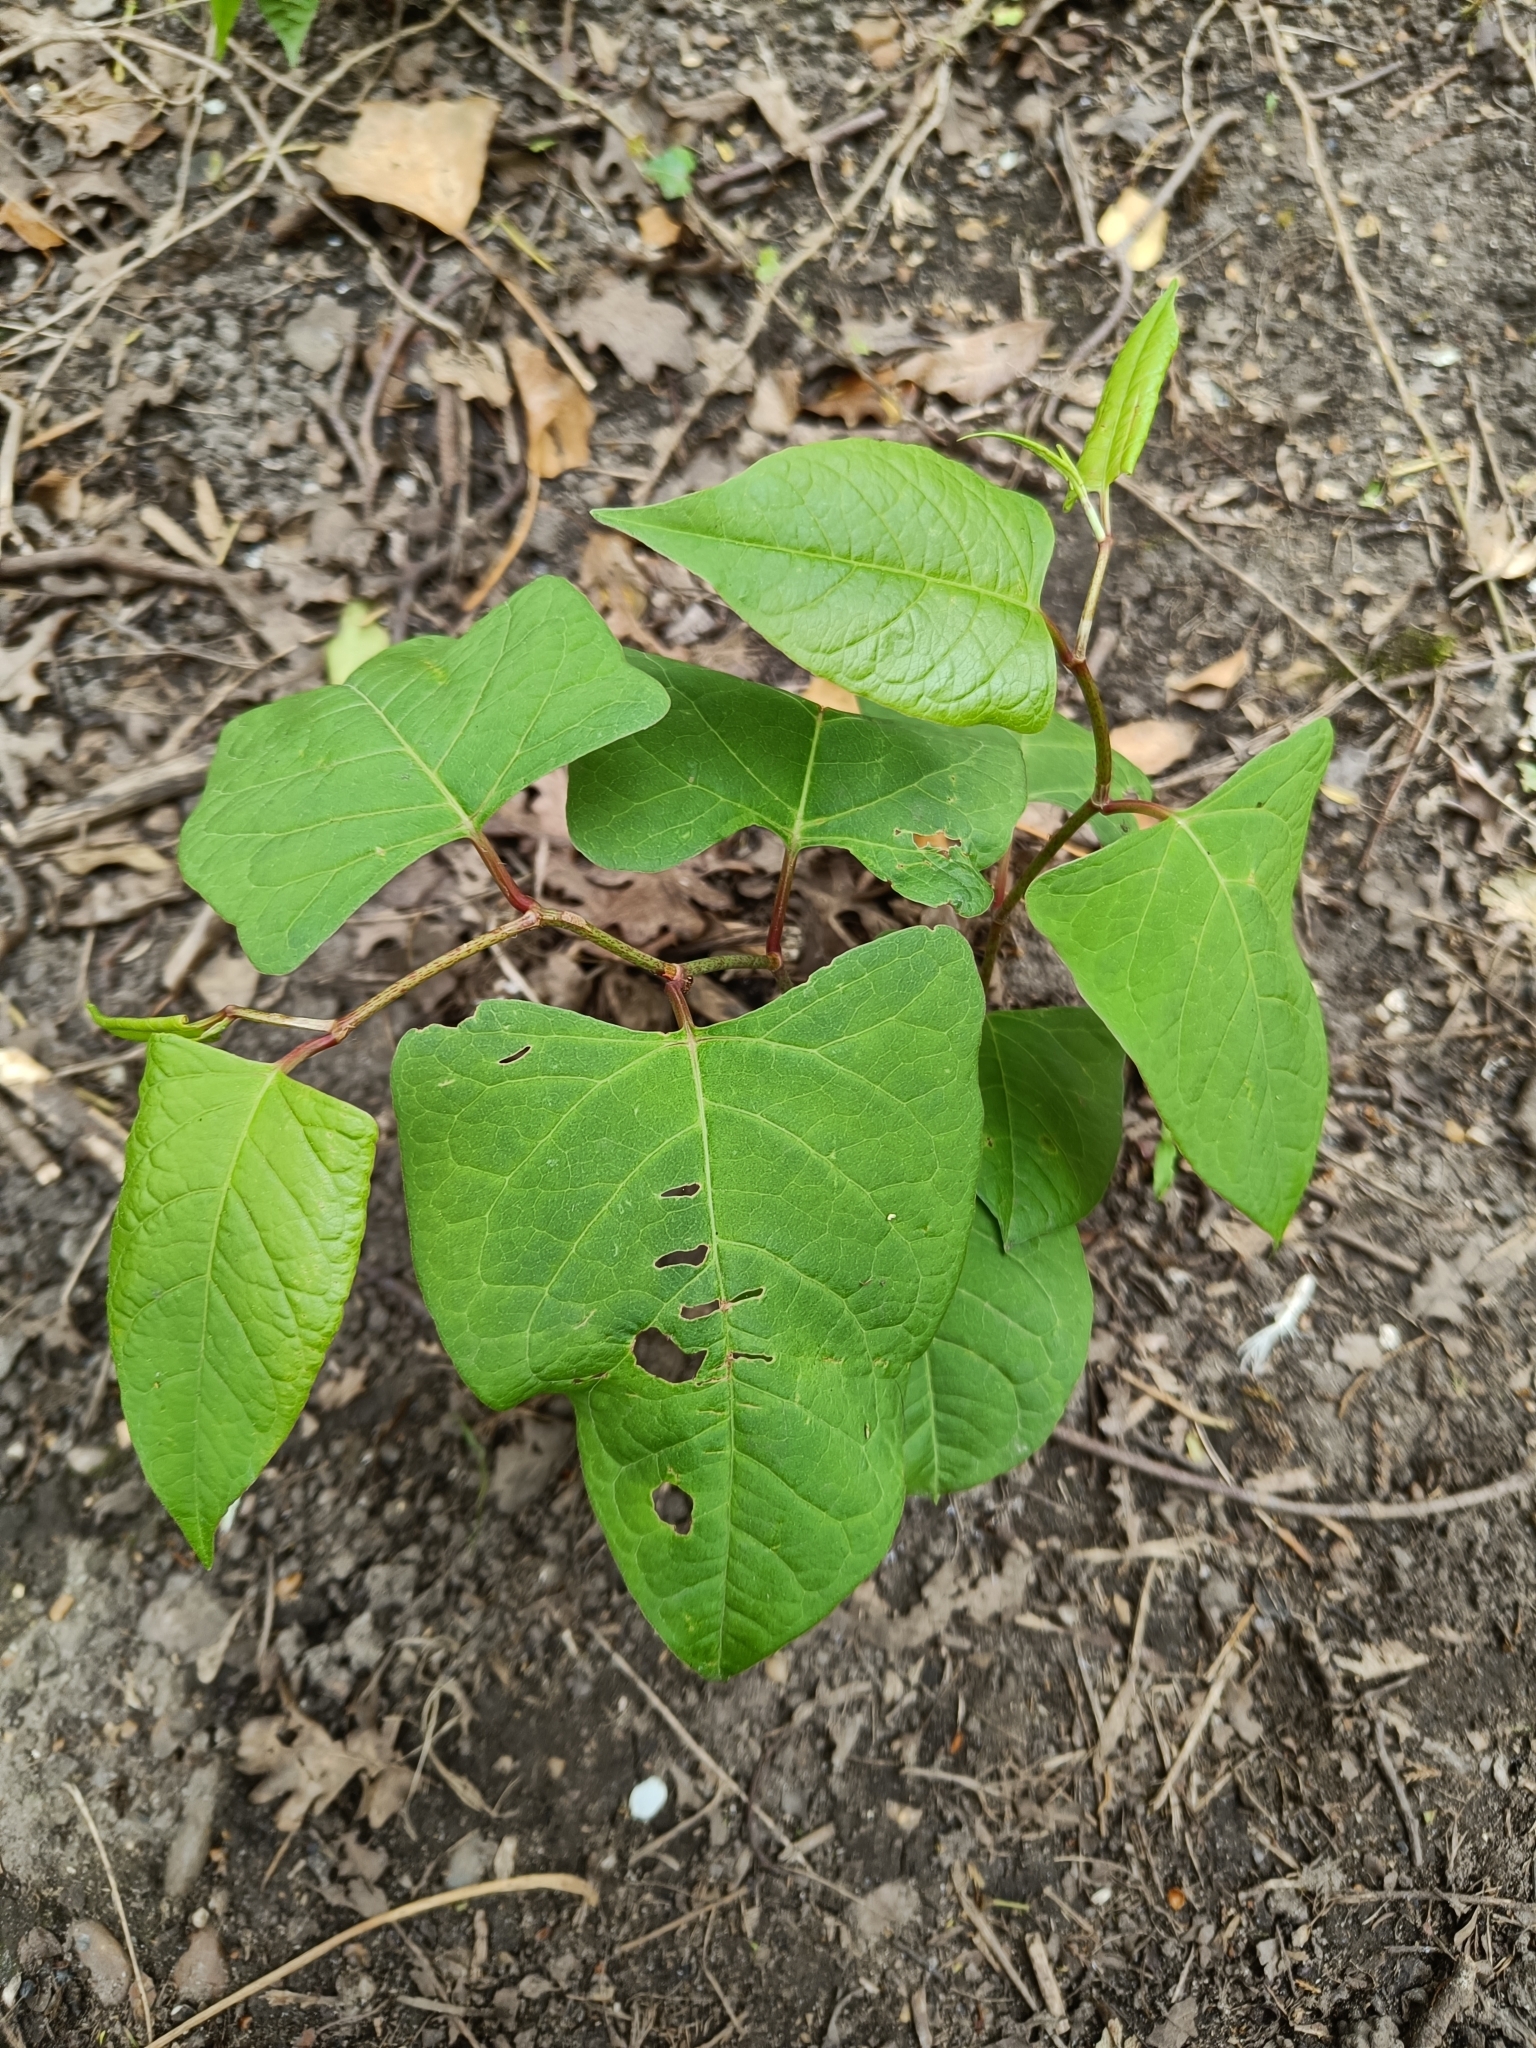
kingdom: Plantae
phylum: Tracheophyta
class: Magnoliopsida
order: Caryophyllales
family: Polygonaceae
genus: Reynoutria
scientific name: Reynoutria japonica
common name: Japanese knotweed
